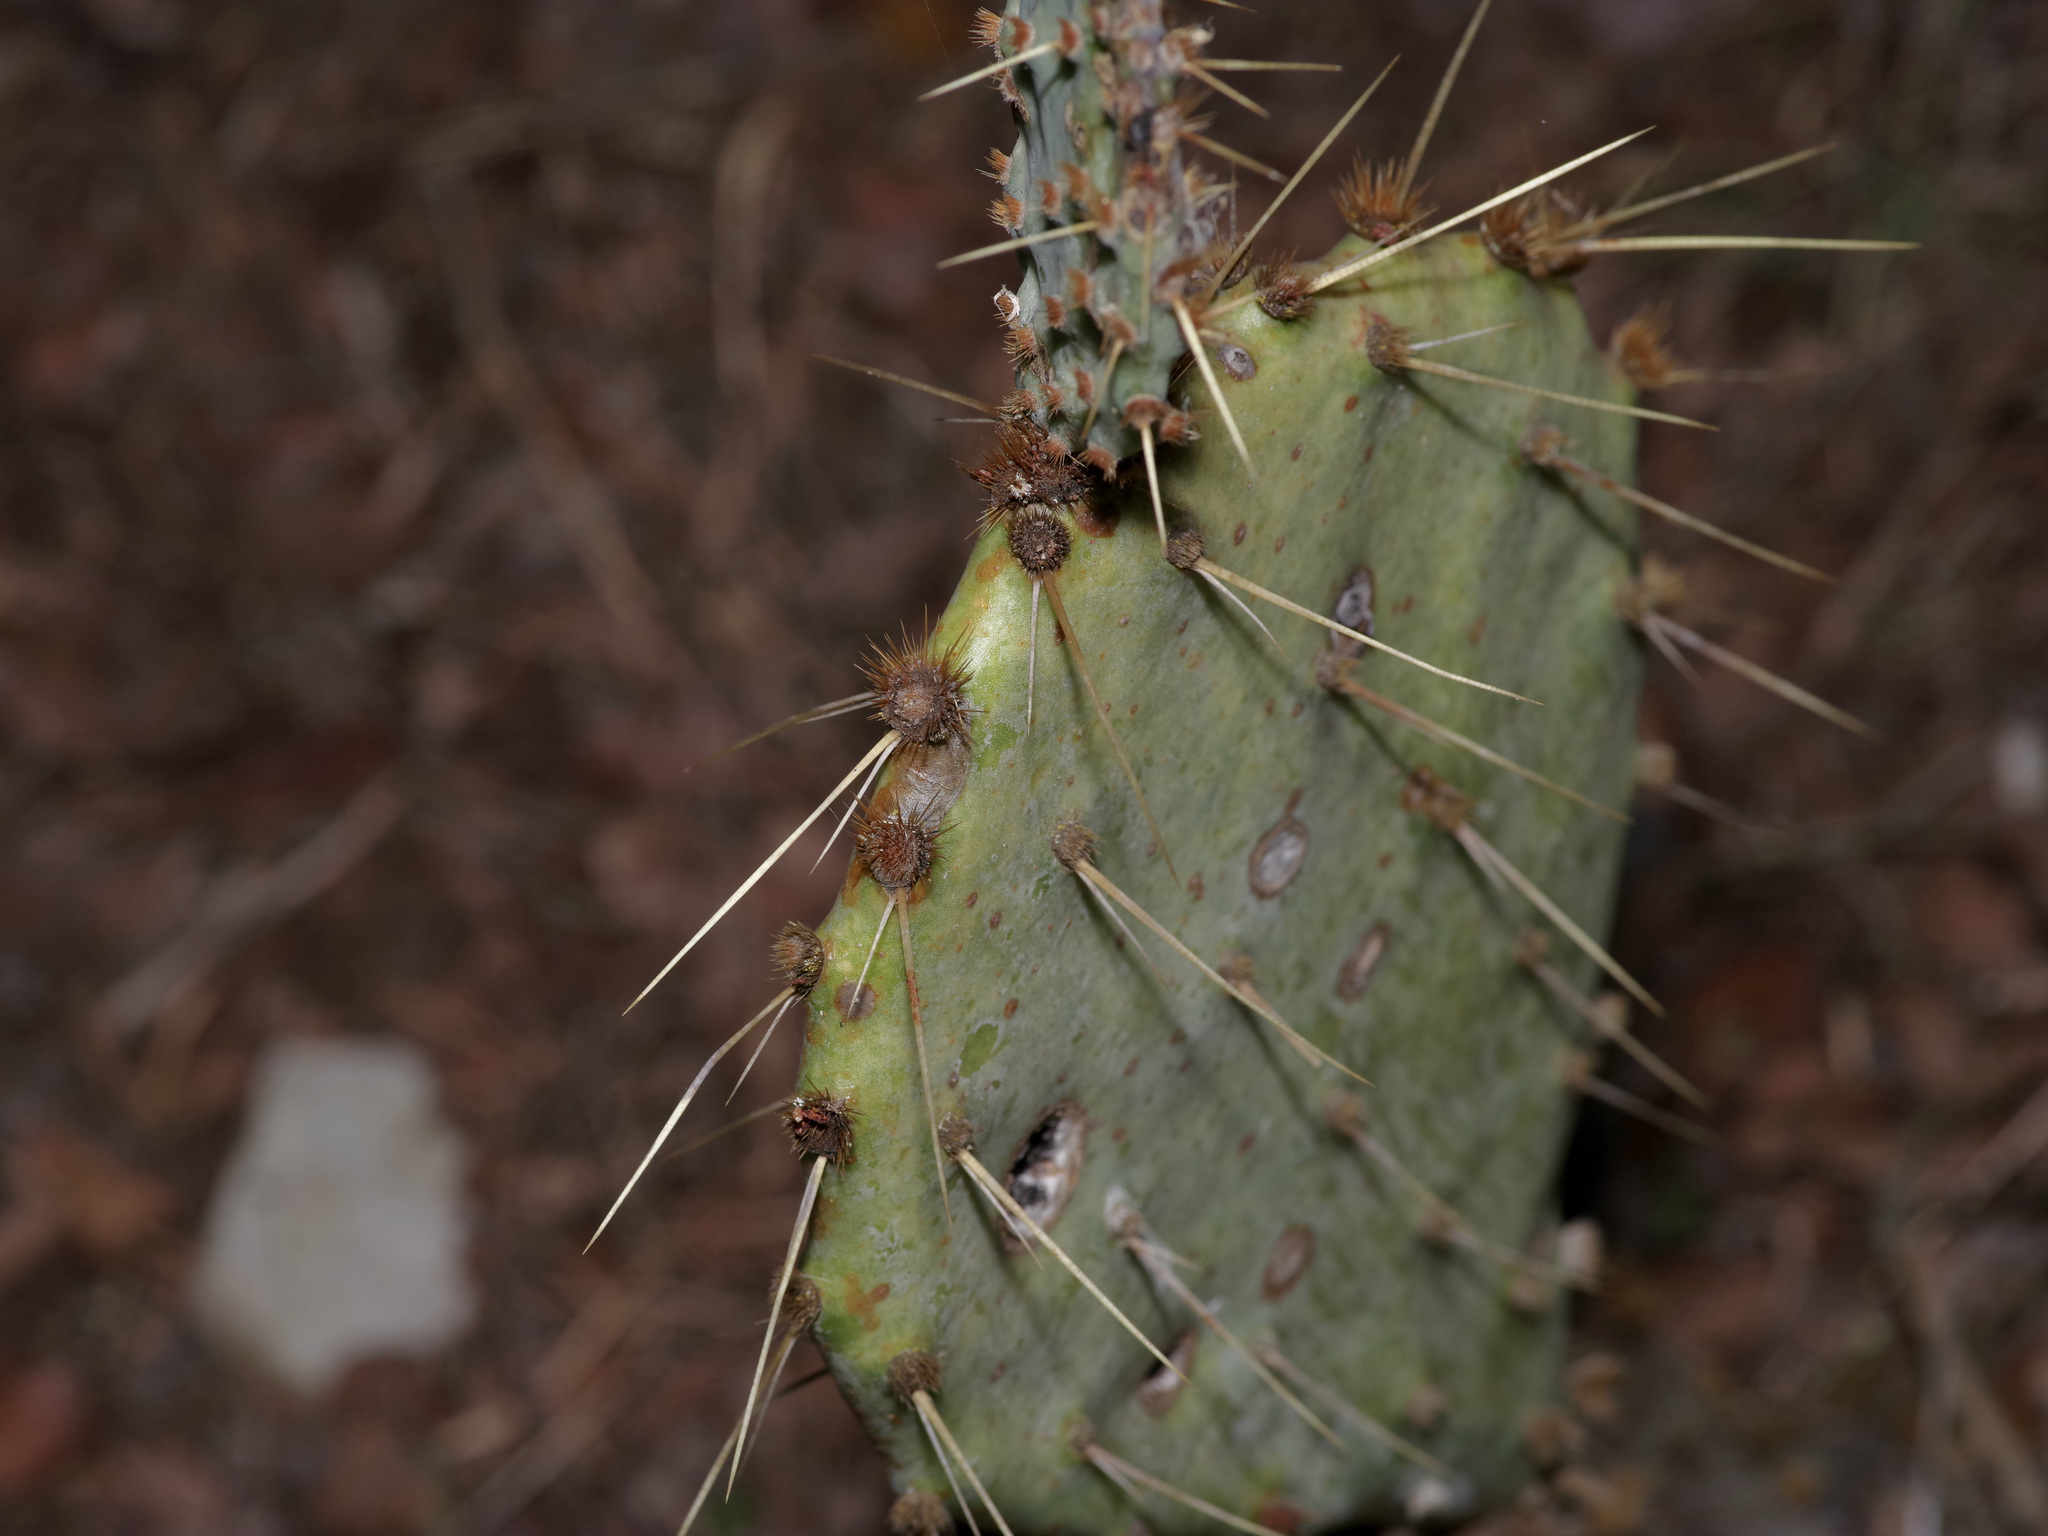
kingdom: Plantae
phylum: Tracheophyta
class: Magnoliopsida
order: Caryophyllales
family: Cactaceae
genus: Opuntia
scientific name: Opuntia orbiculata
